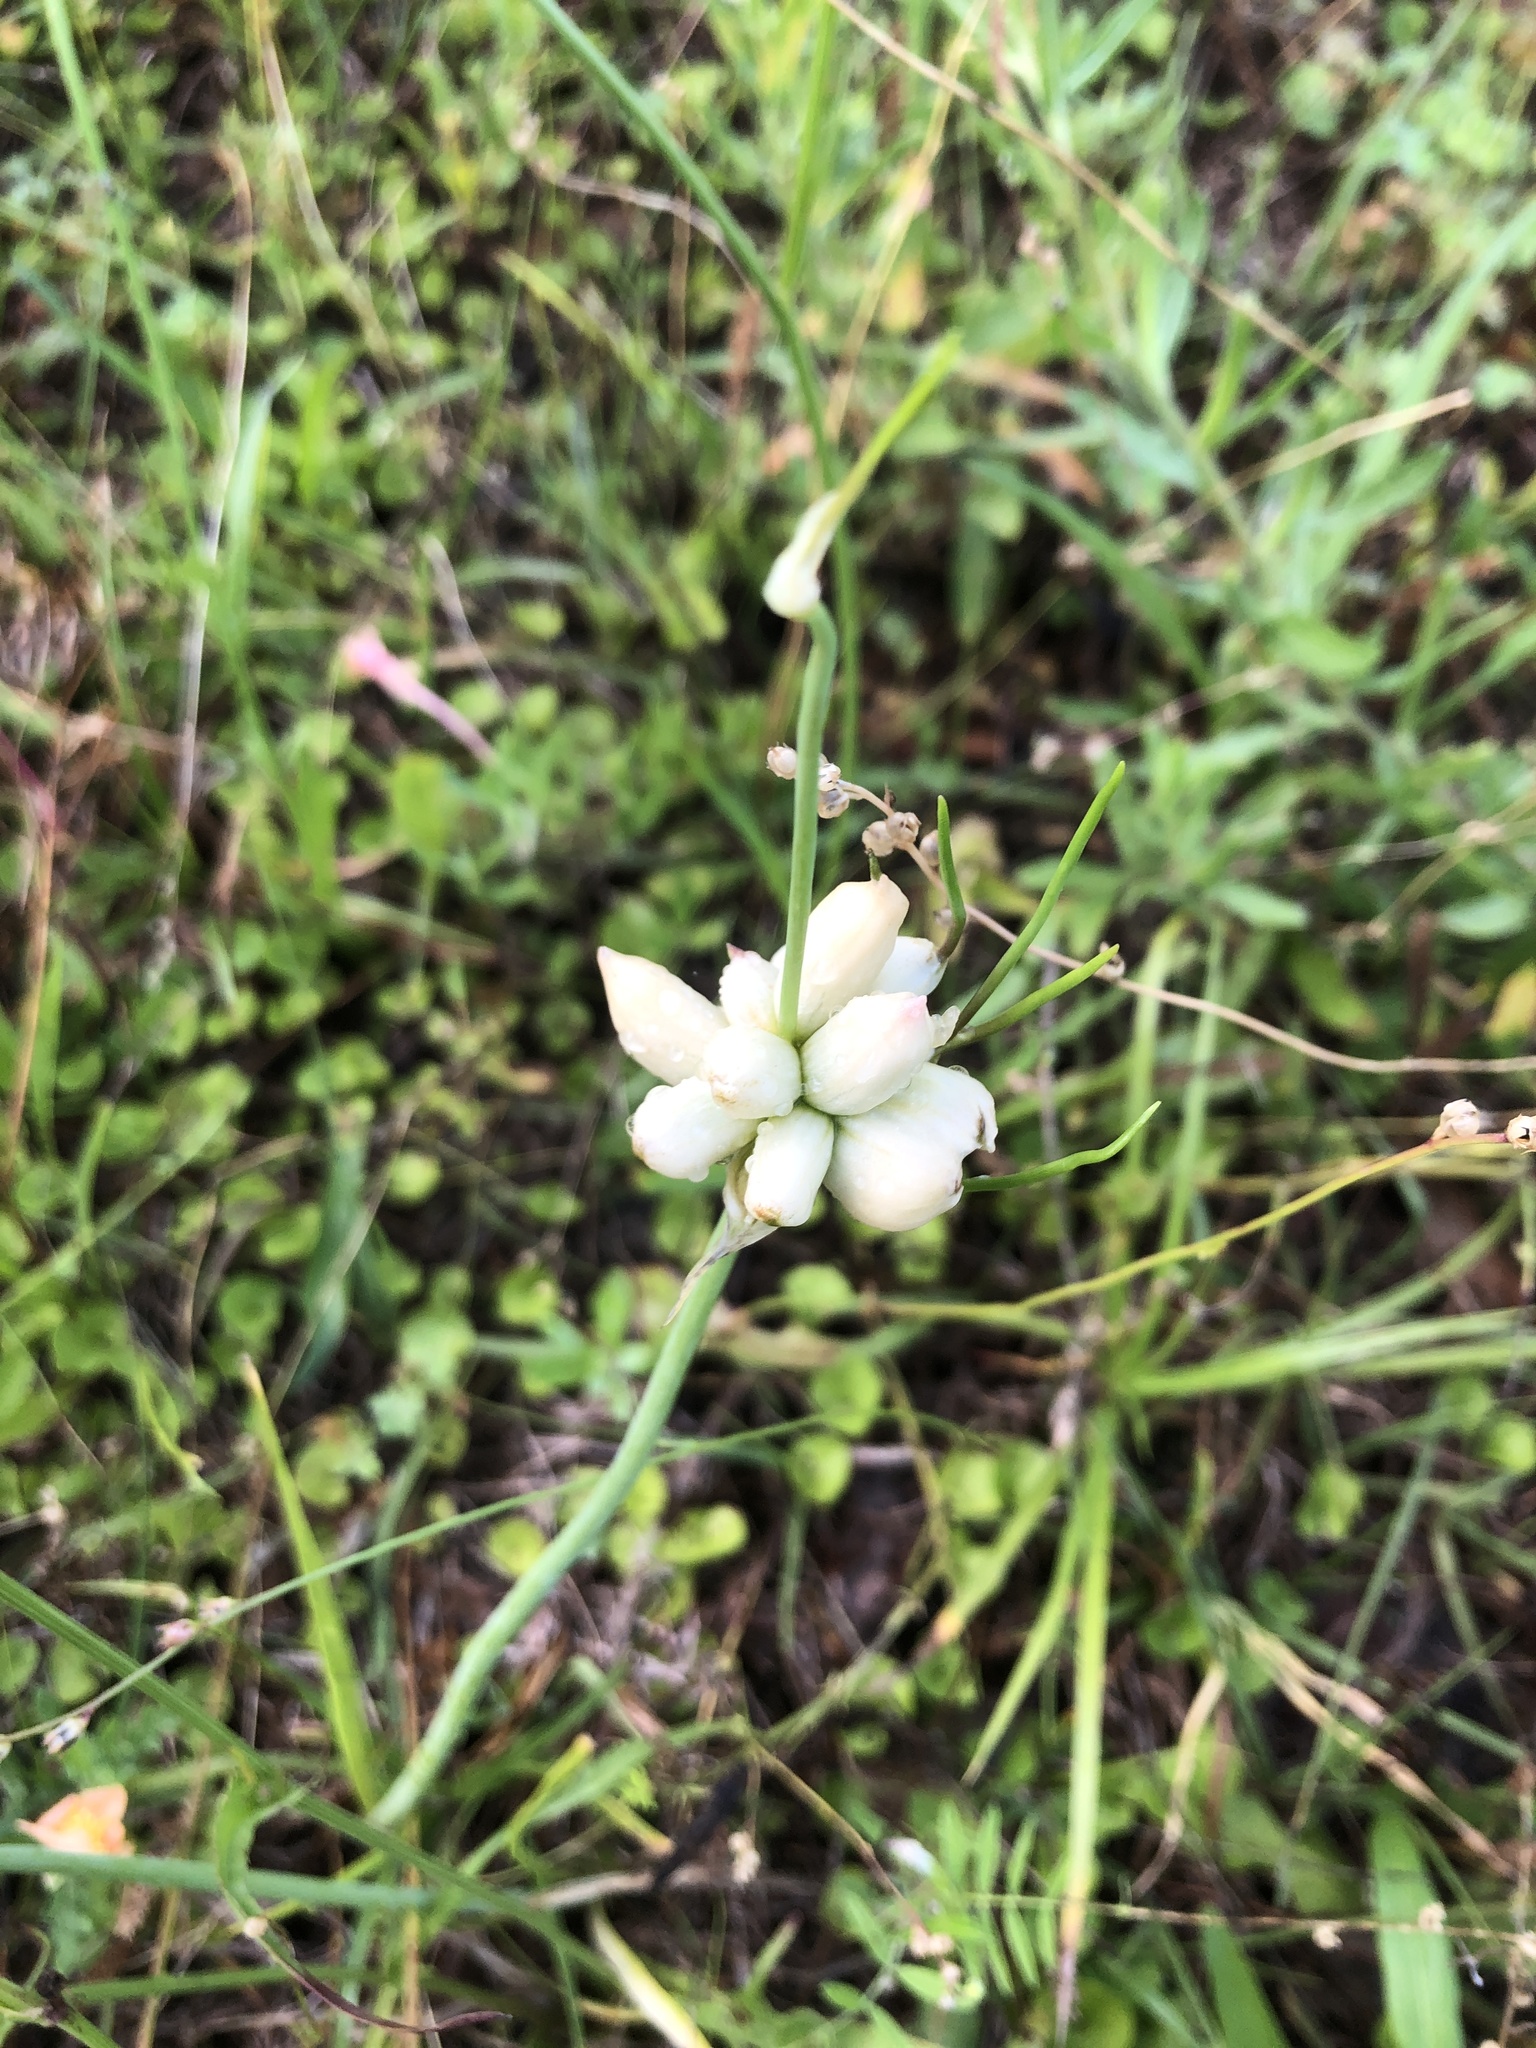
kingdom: Plantae
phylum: Tracheophyta
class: Liliopsida
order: Asparagales
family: Amaryllidaceae
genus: Allium
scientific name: Allium canadense
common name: Meadow garlic
